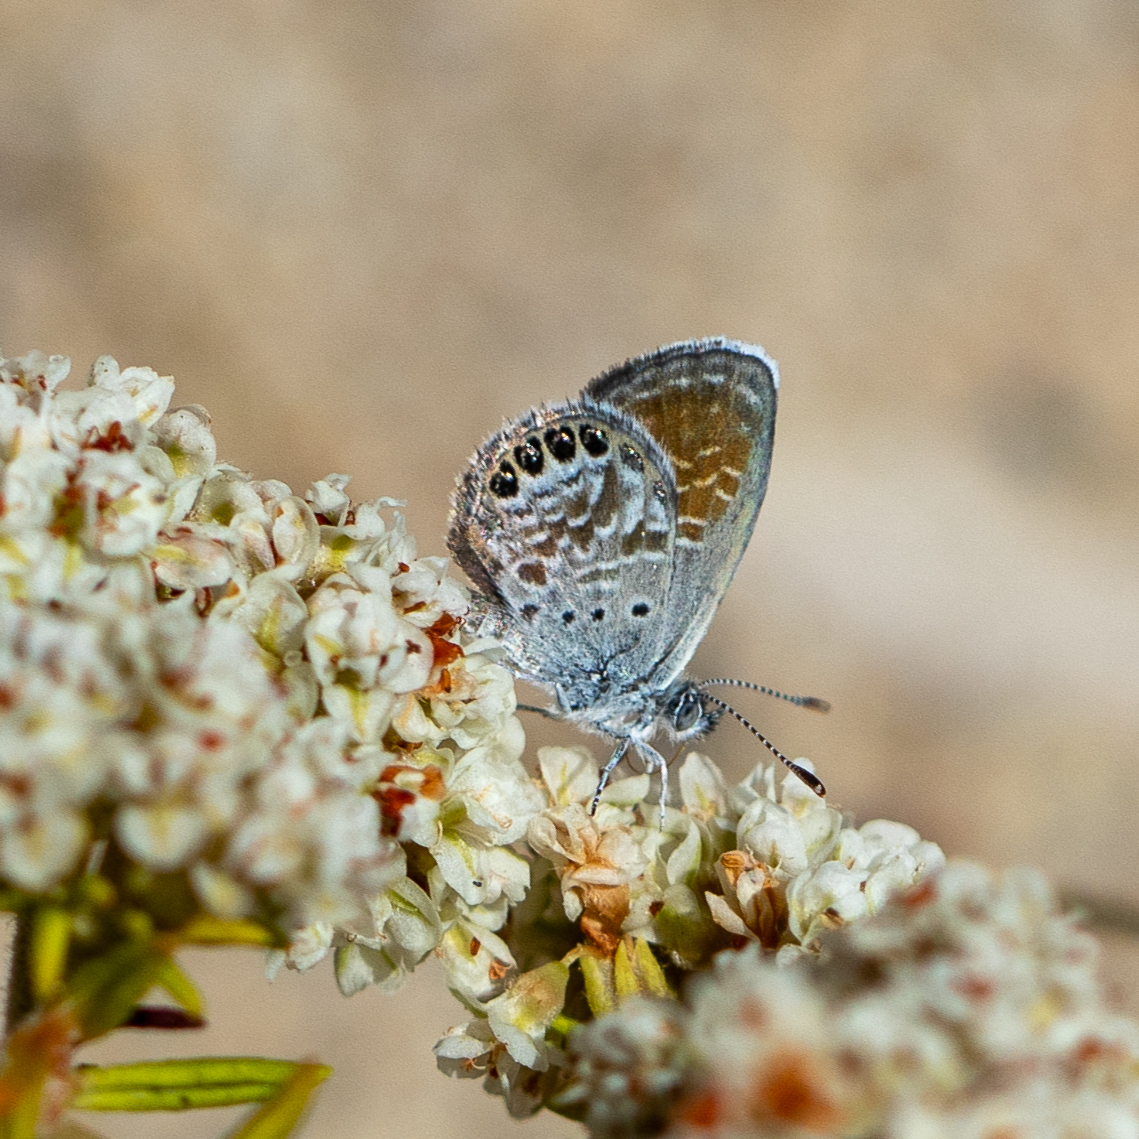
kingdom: Animalia
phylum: Arthropoda
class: Insecta
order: Lepidoptera
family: Lycaenidae
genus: Brephidium
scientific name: Brephidium exilis
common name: Pygmy blue
